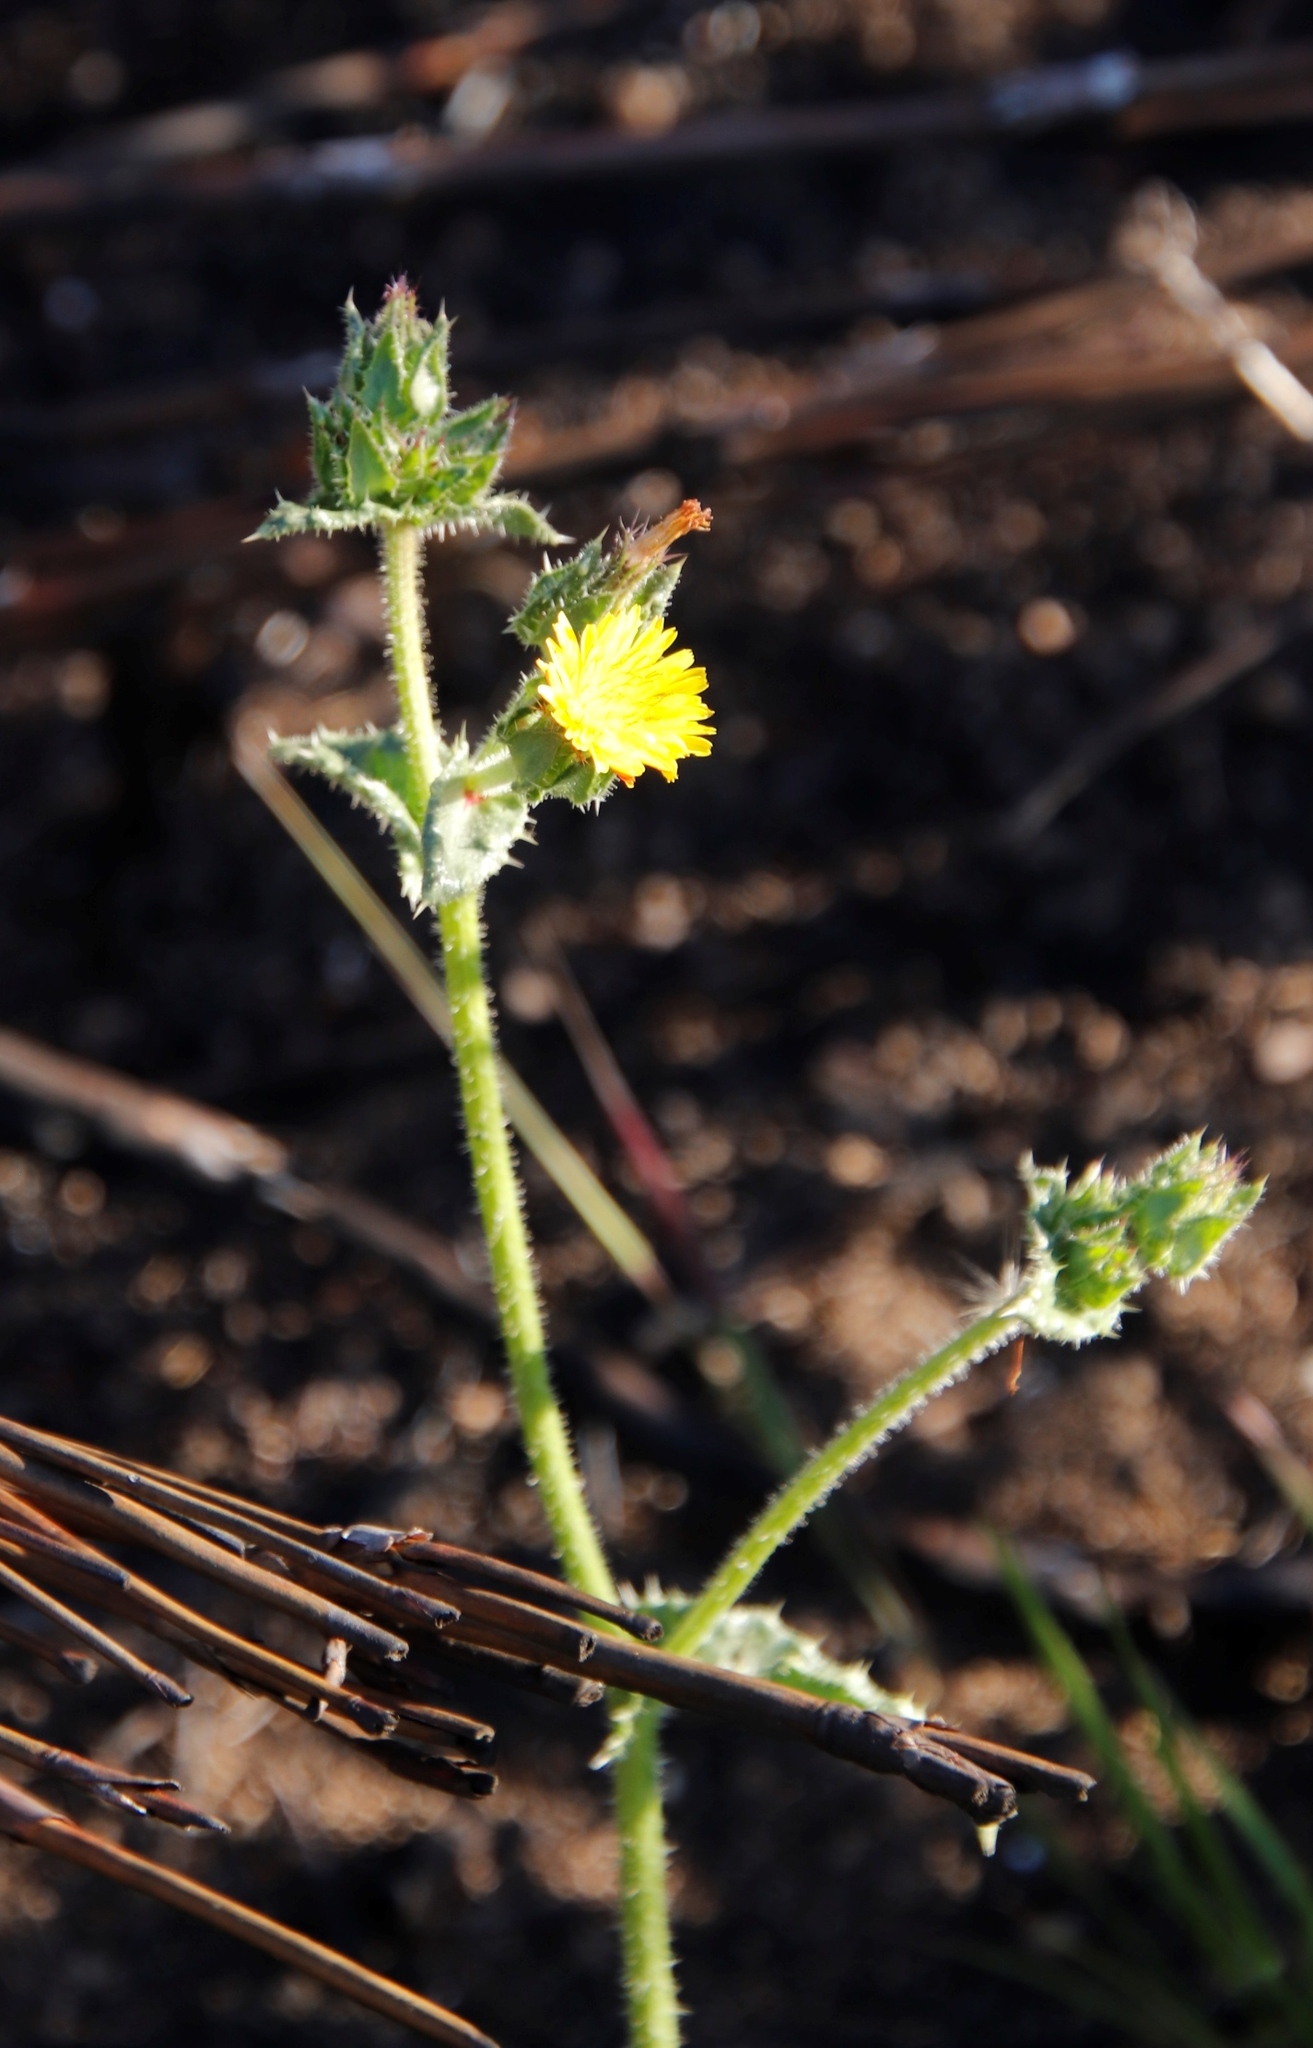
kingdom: Plantae
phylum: Tracheophyta
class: Magnoliopsida
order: Asterales
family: Asteraceae
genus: Helminthotheca
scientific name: Helminthotheca echioides
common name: Ox-tongue
